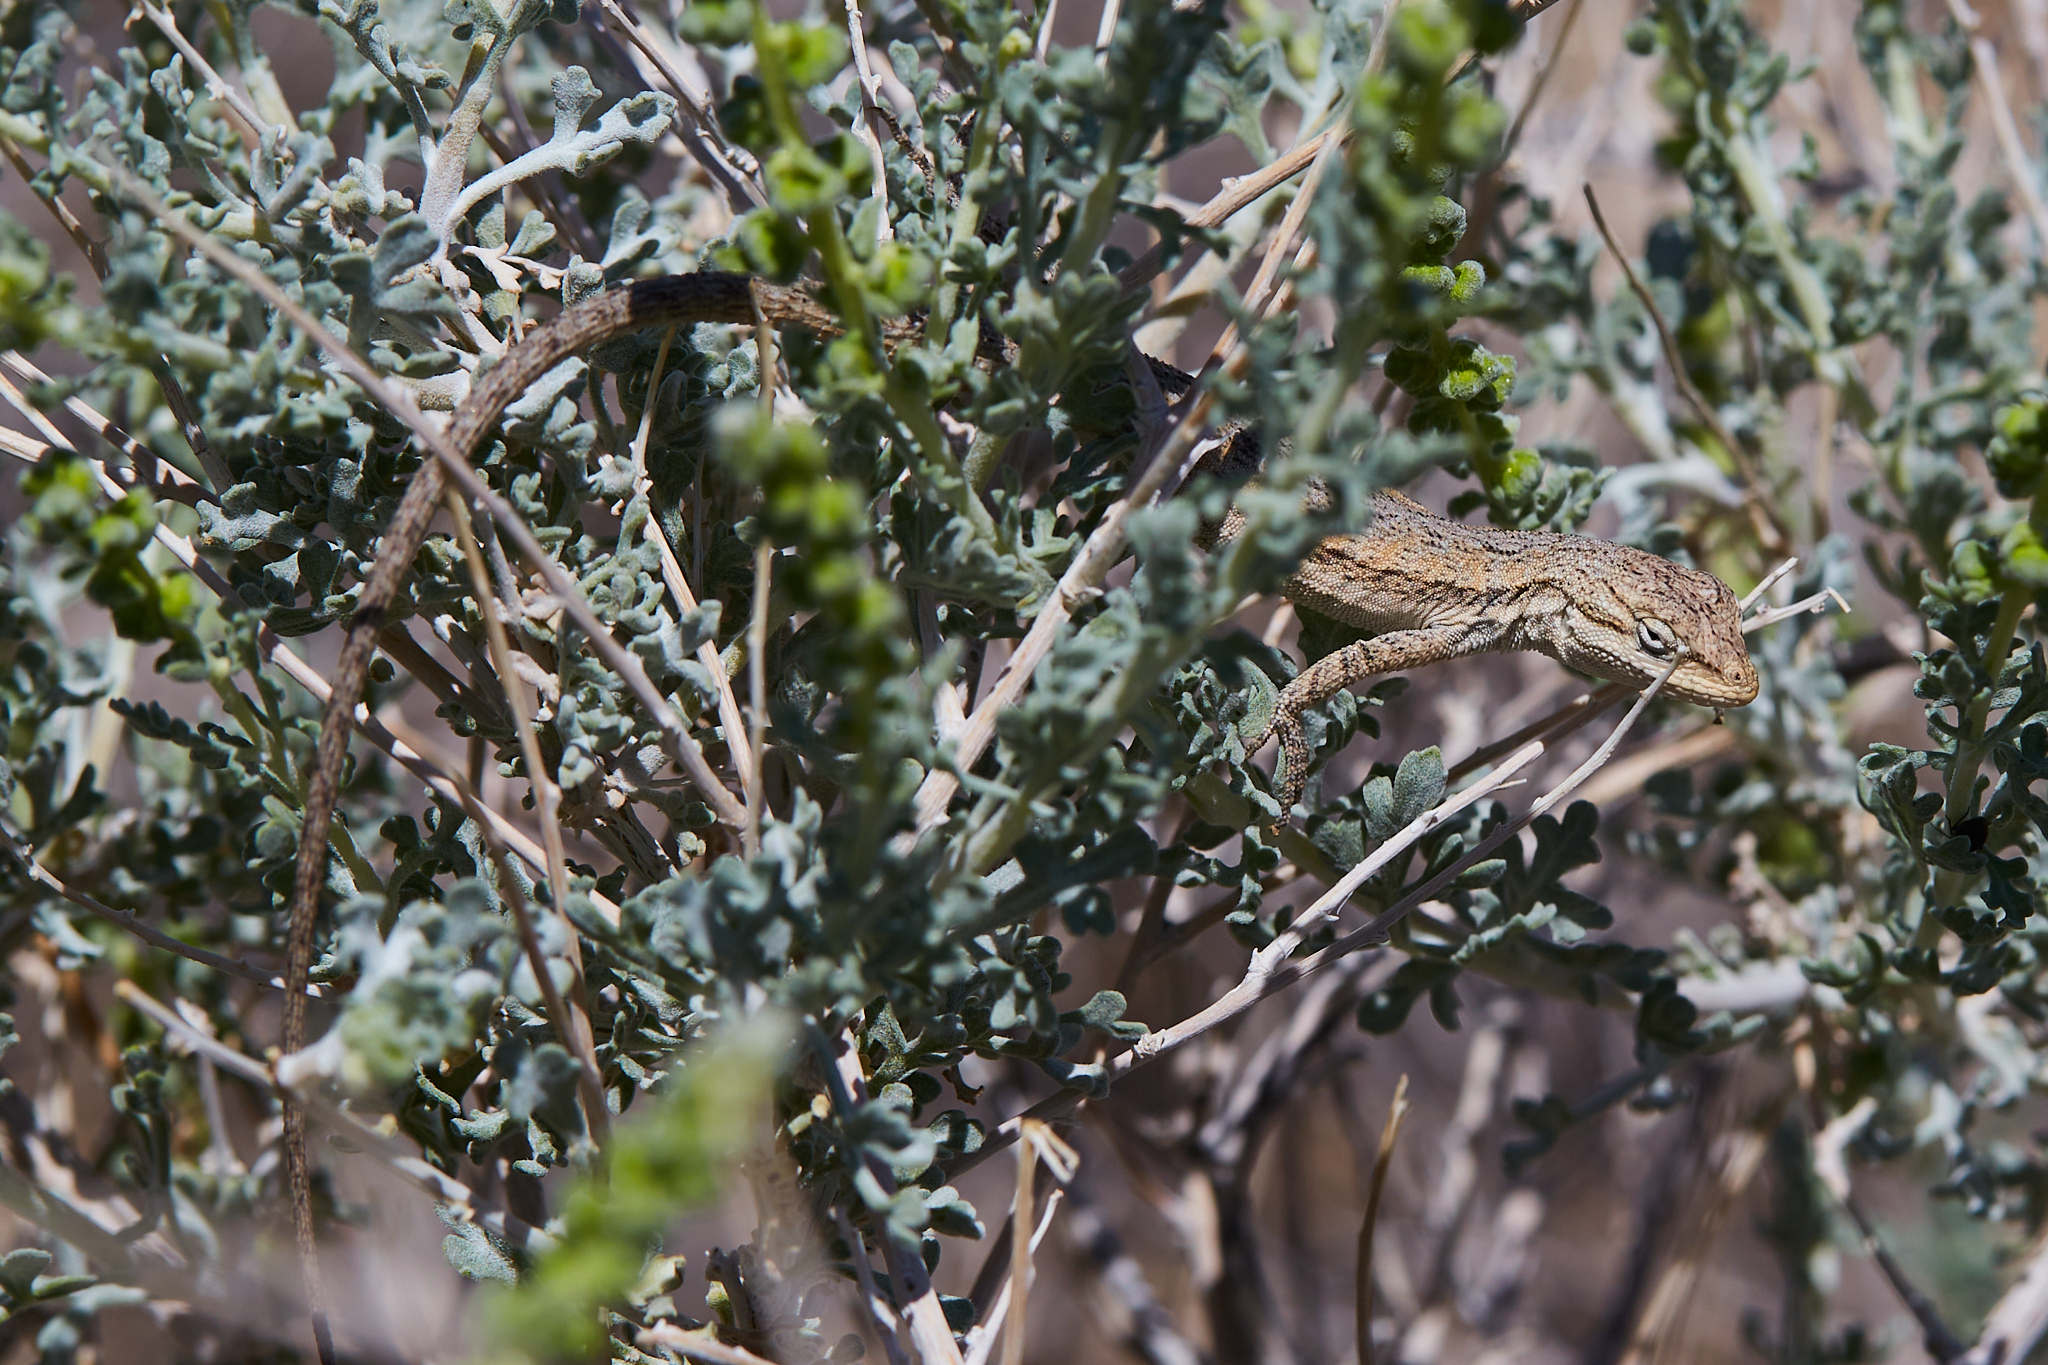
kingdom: Animalia
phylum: Chordata
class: Squamata
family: Phrynosomatidae
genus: Urosaurus
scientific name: Urosaurus graciosus
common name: Long-tailed brush lizard
